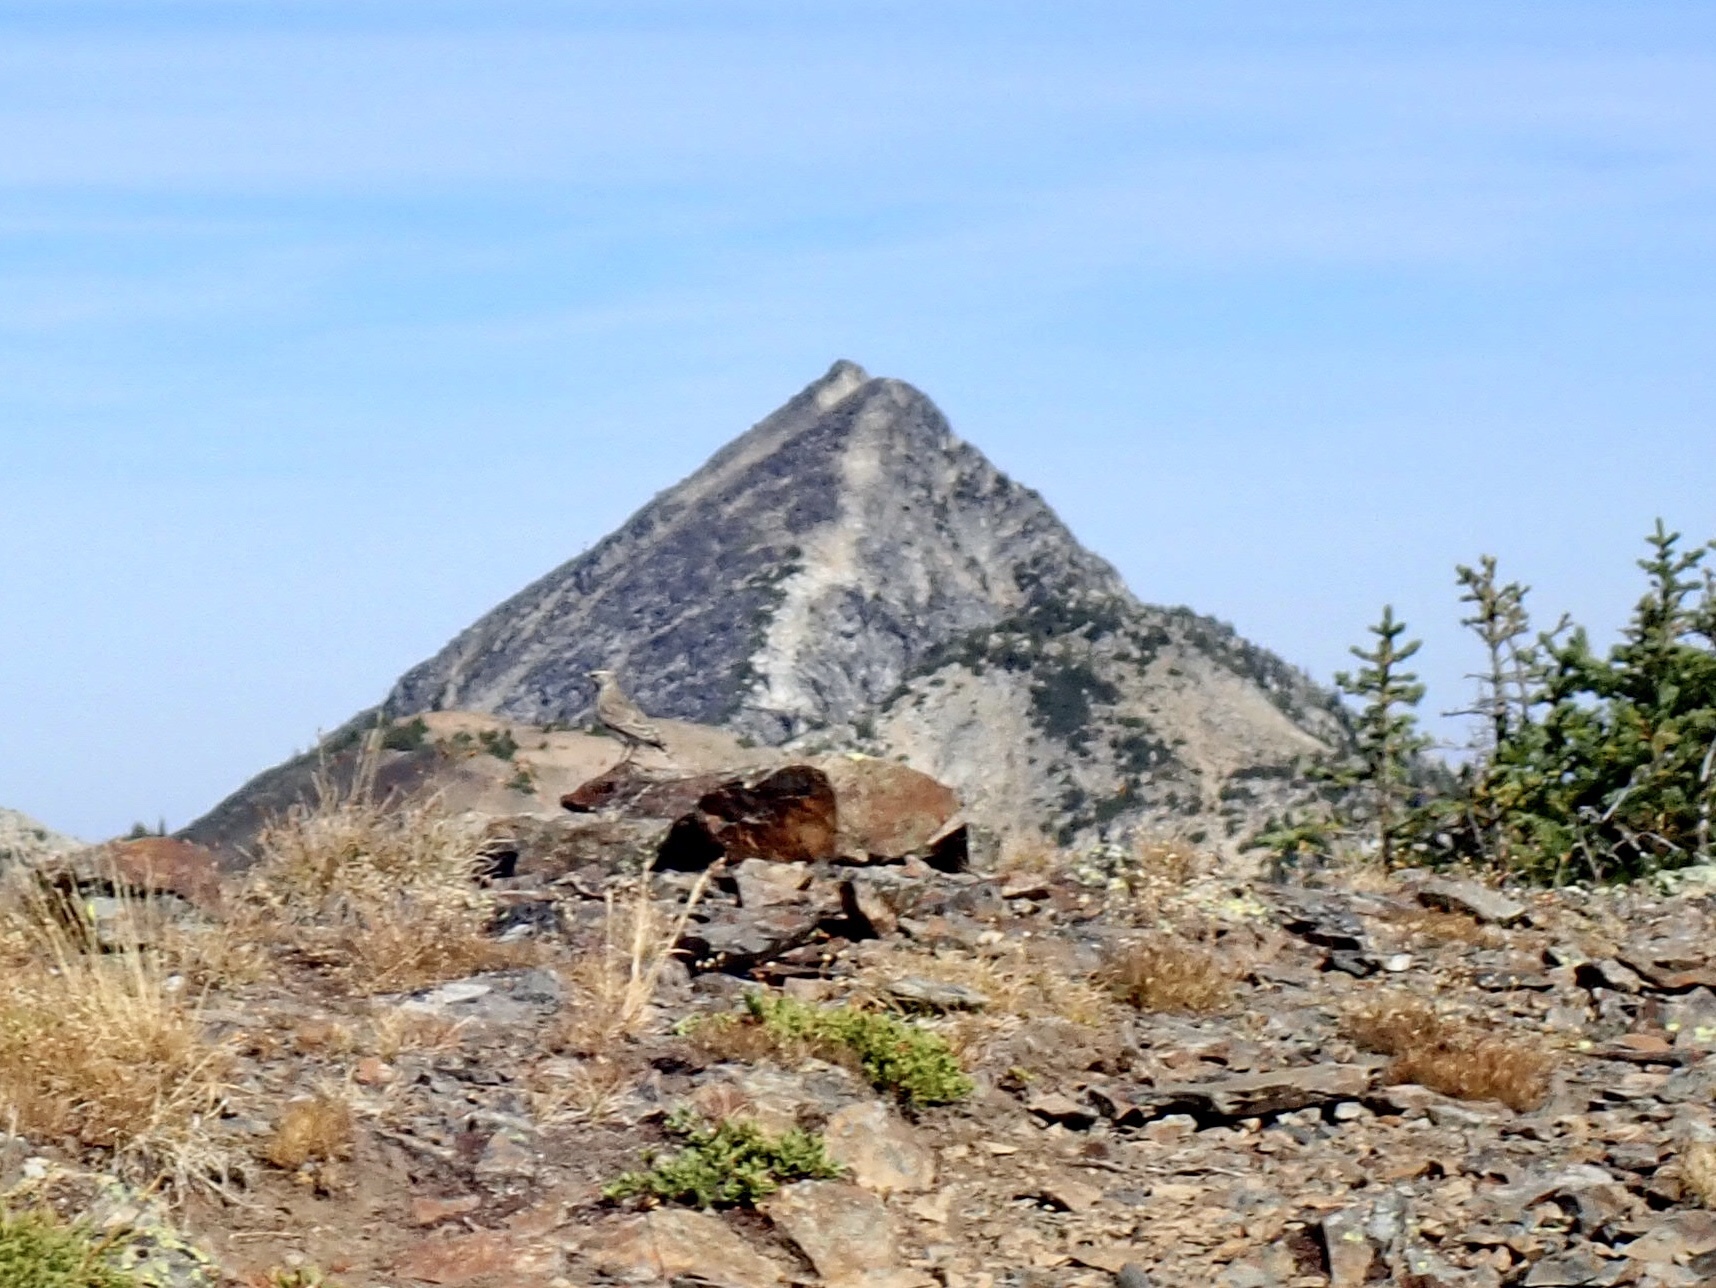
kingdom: Animalia
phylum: Chordata
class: Aves
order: Passeriformes
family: Alaudidae
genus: Eremophila
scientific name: Eremophila alpestris
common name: Horned lark
